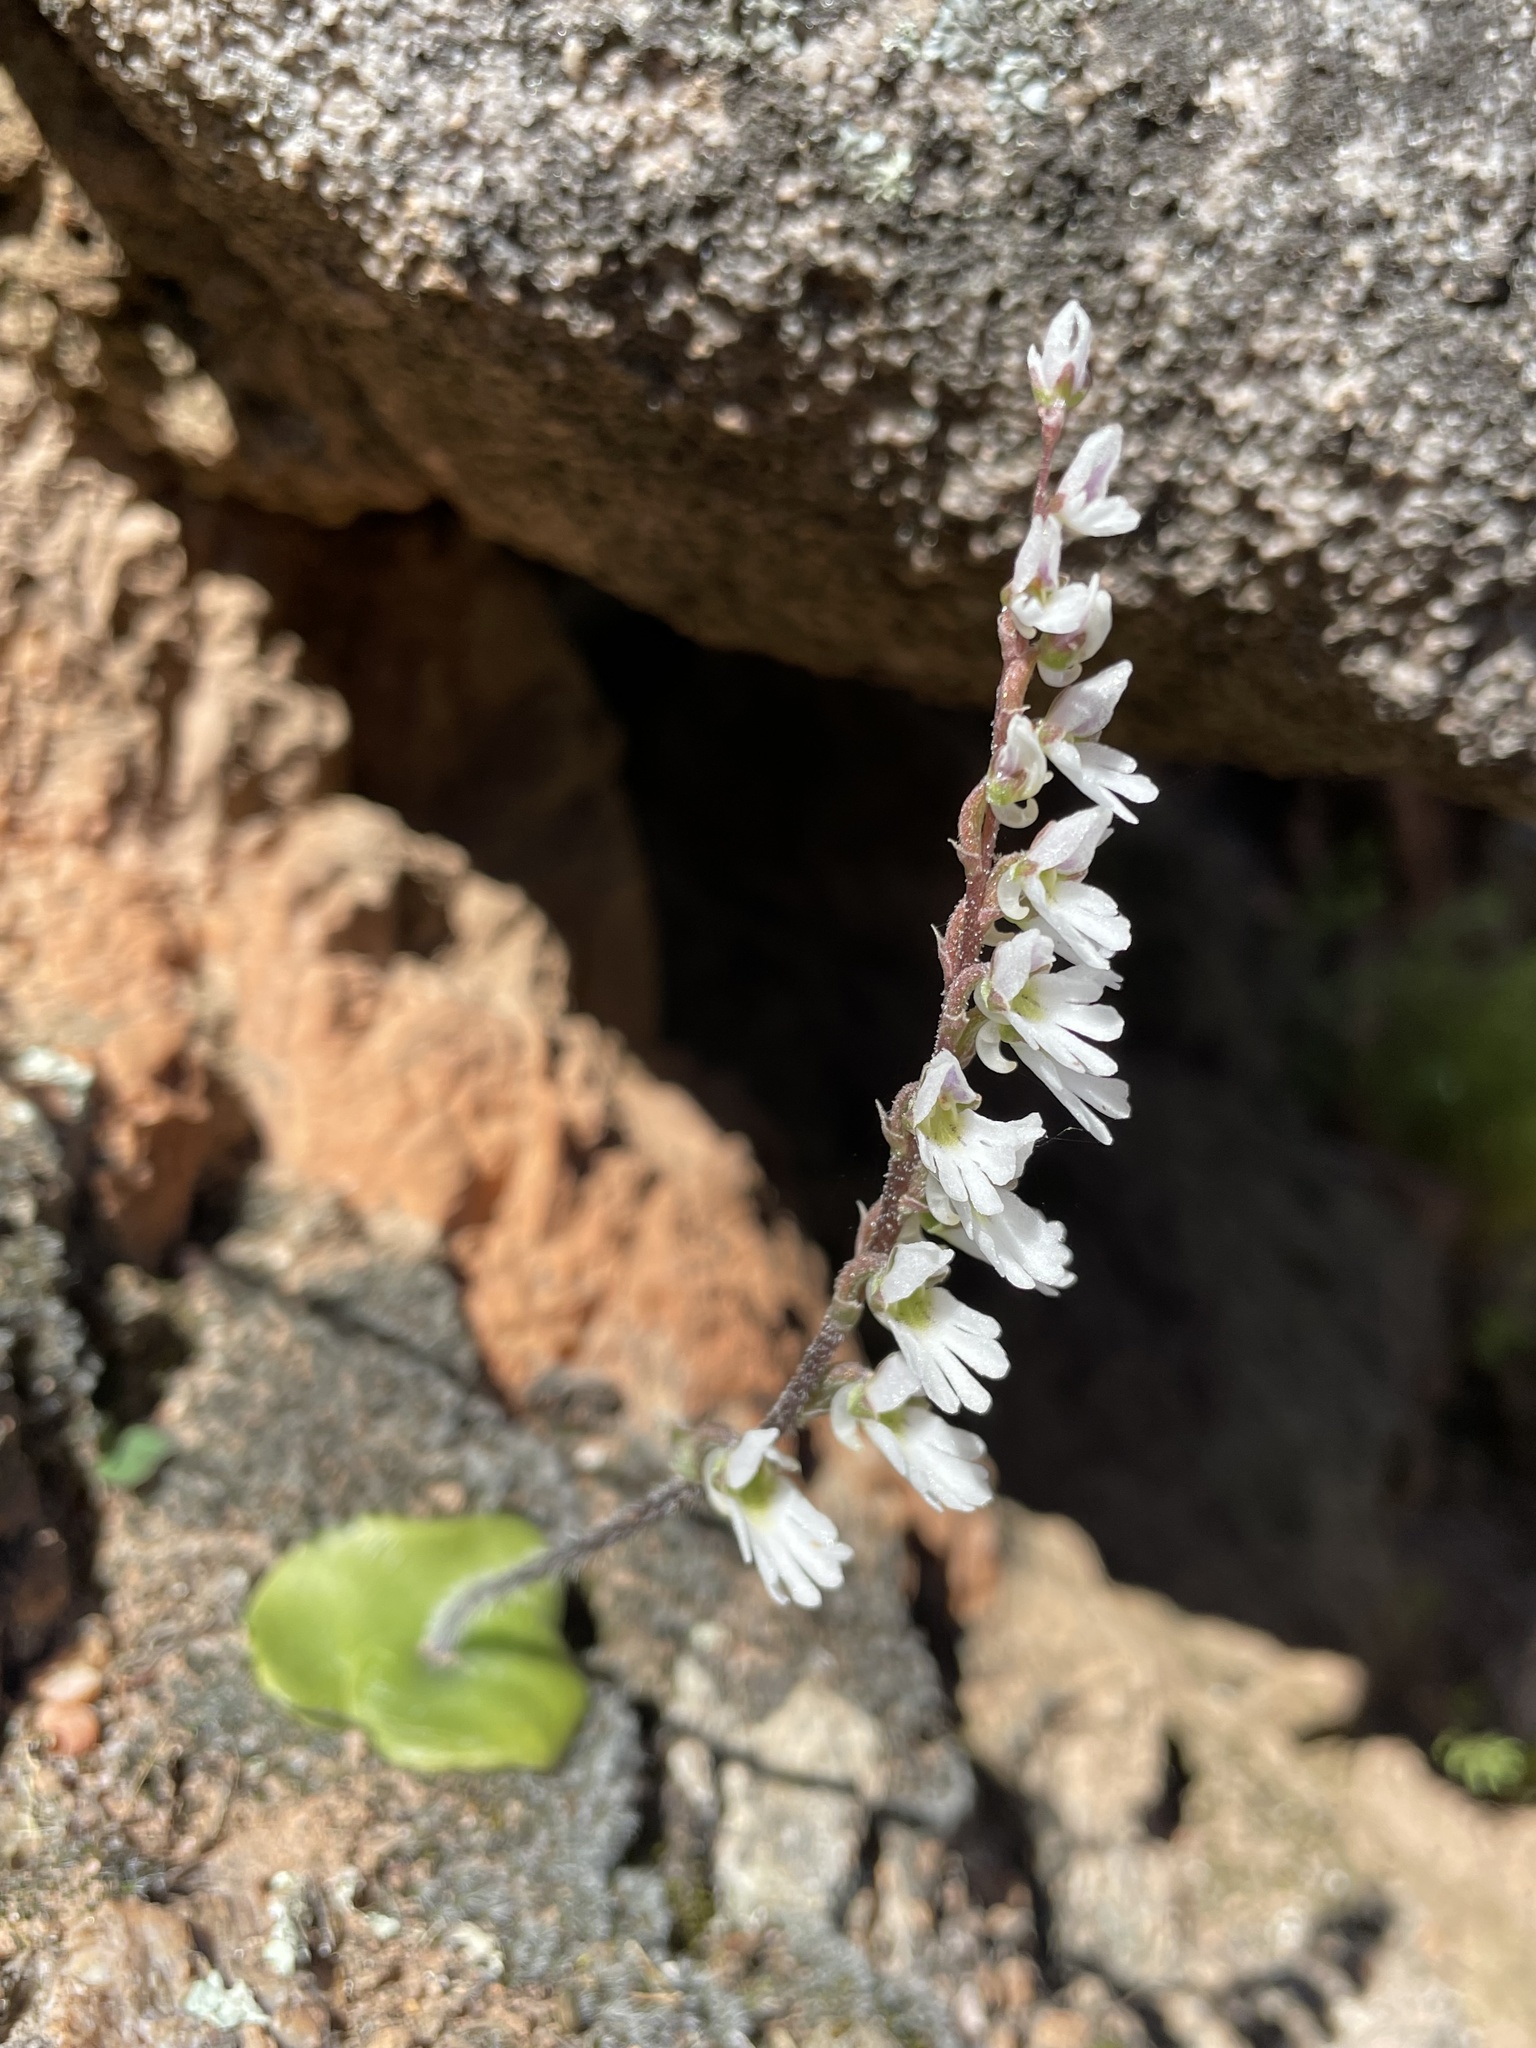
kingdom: Plantae
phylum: Tracheophyta
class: Liliopsida
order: Asparagales
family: Orchidaceae
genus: Holothrix
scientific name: Holothrix aspera
